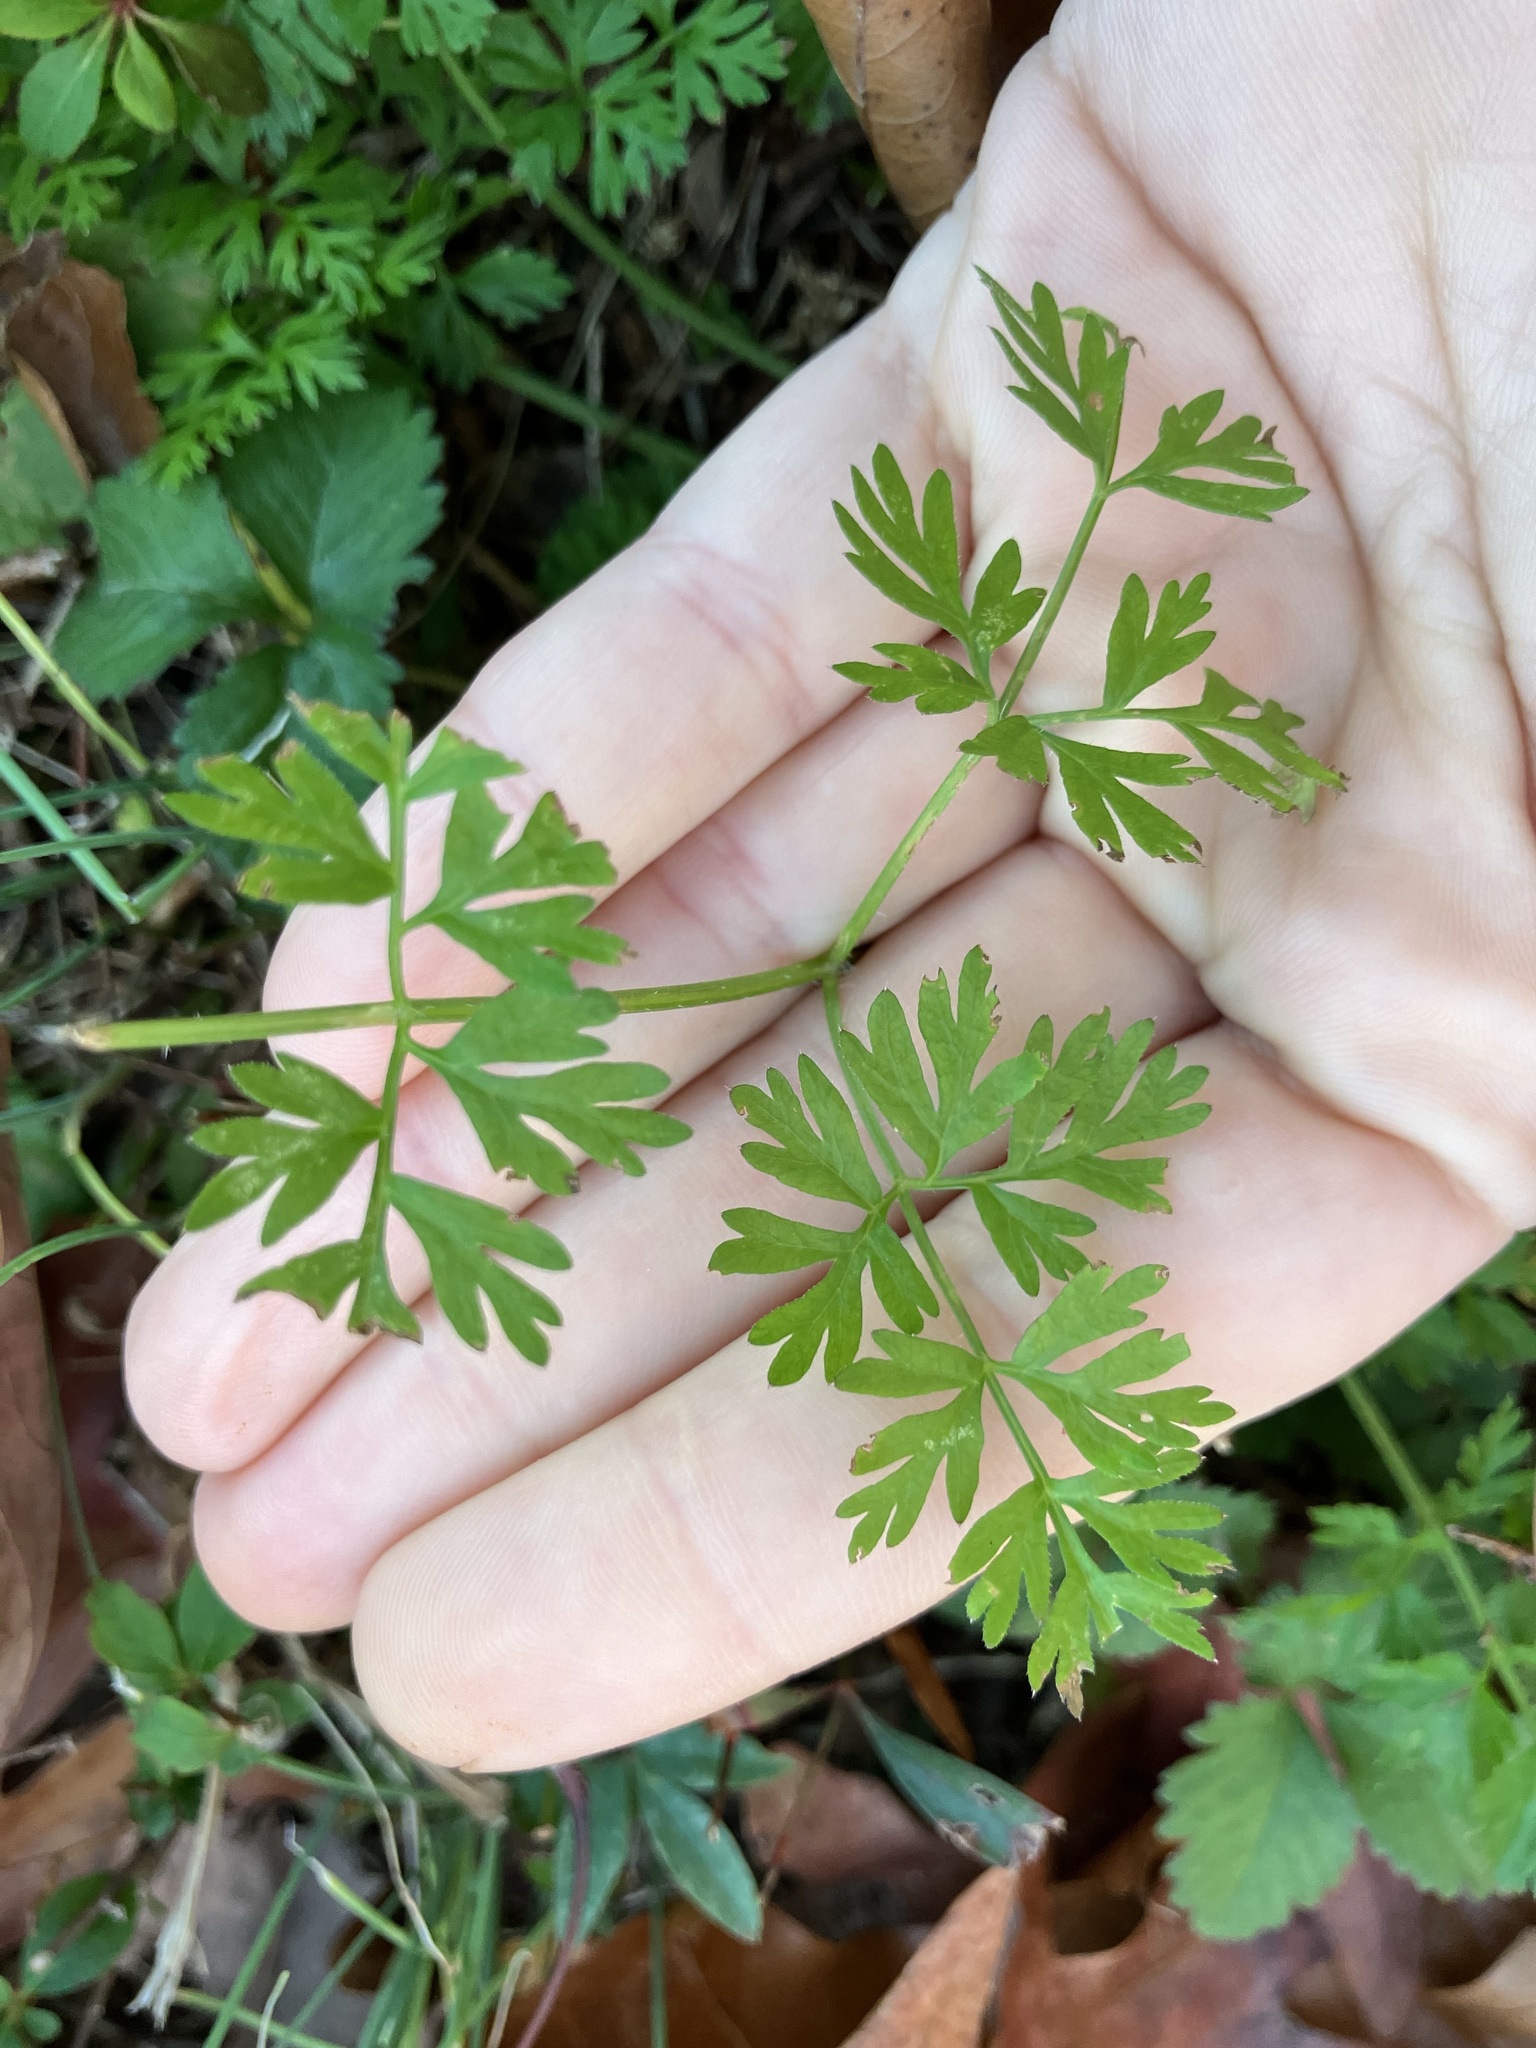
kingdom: Plantae
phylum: Tracheophyta
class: Magnoliopsida
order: Apiales
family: Apiaceae
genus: Chaerophyllum
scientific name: Chaerophyllum tainturieri
